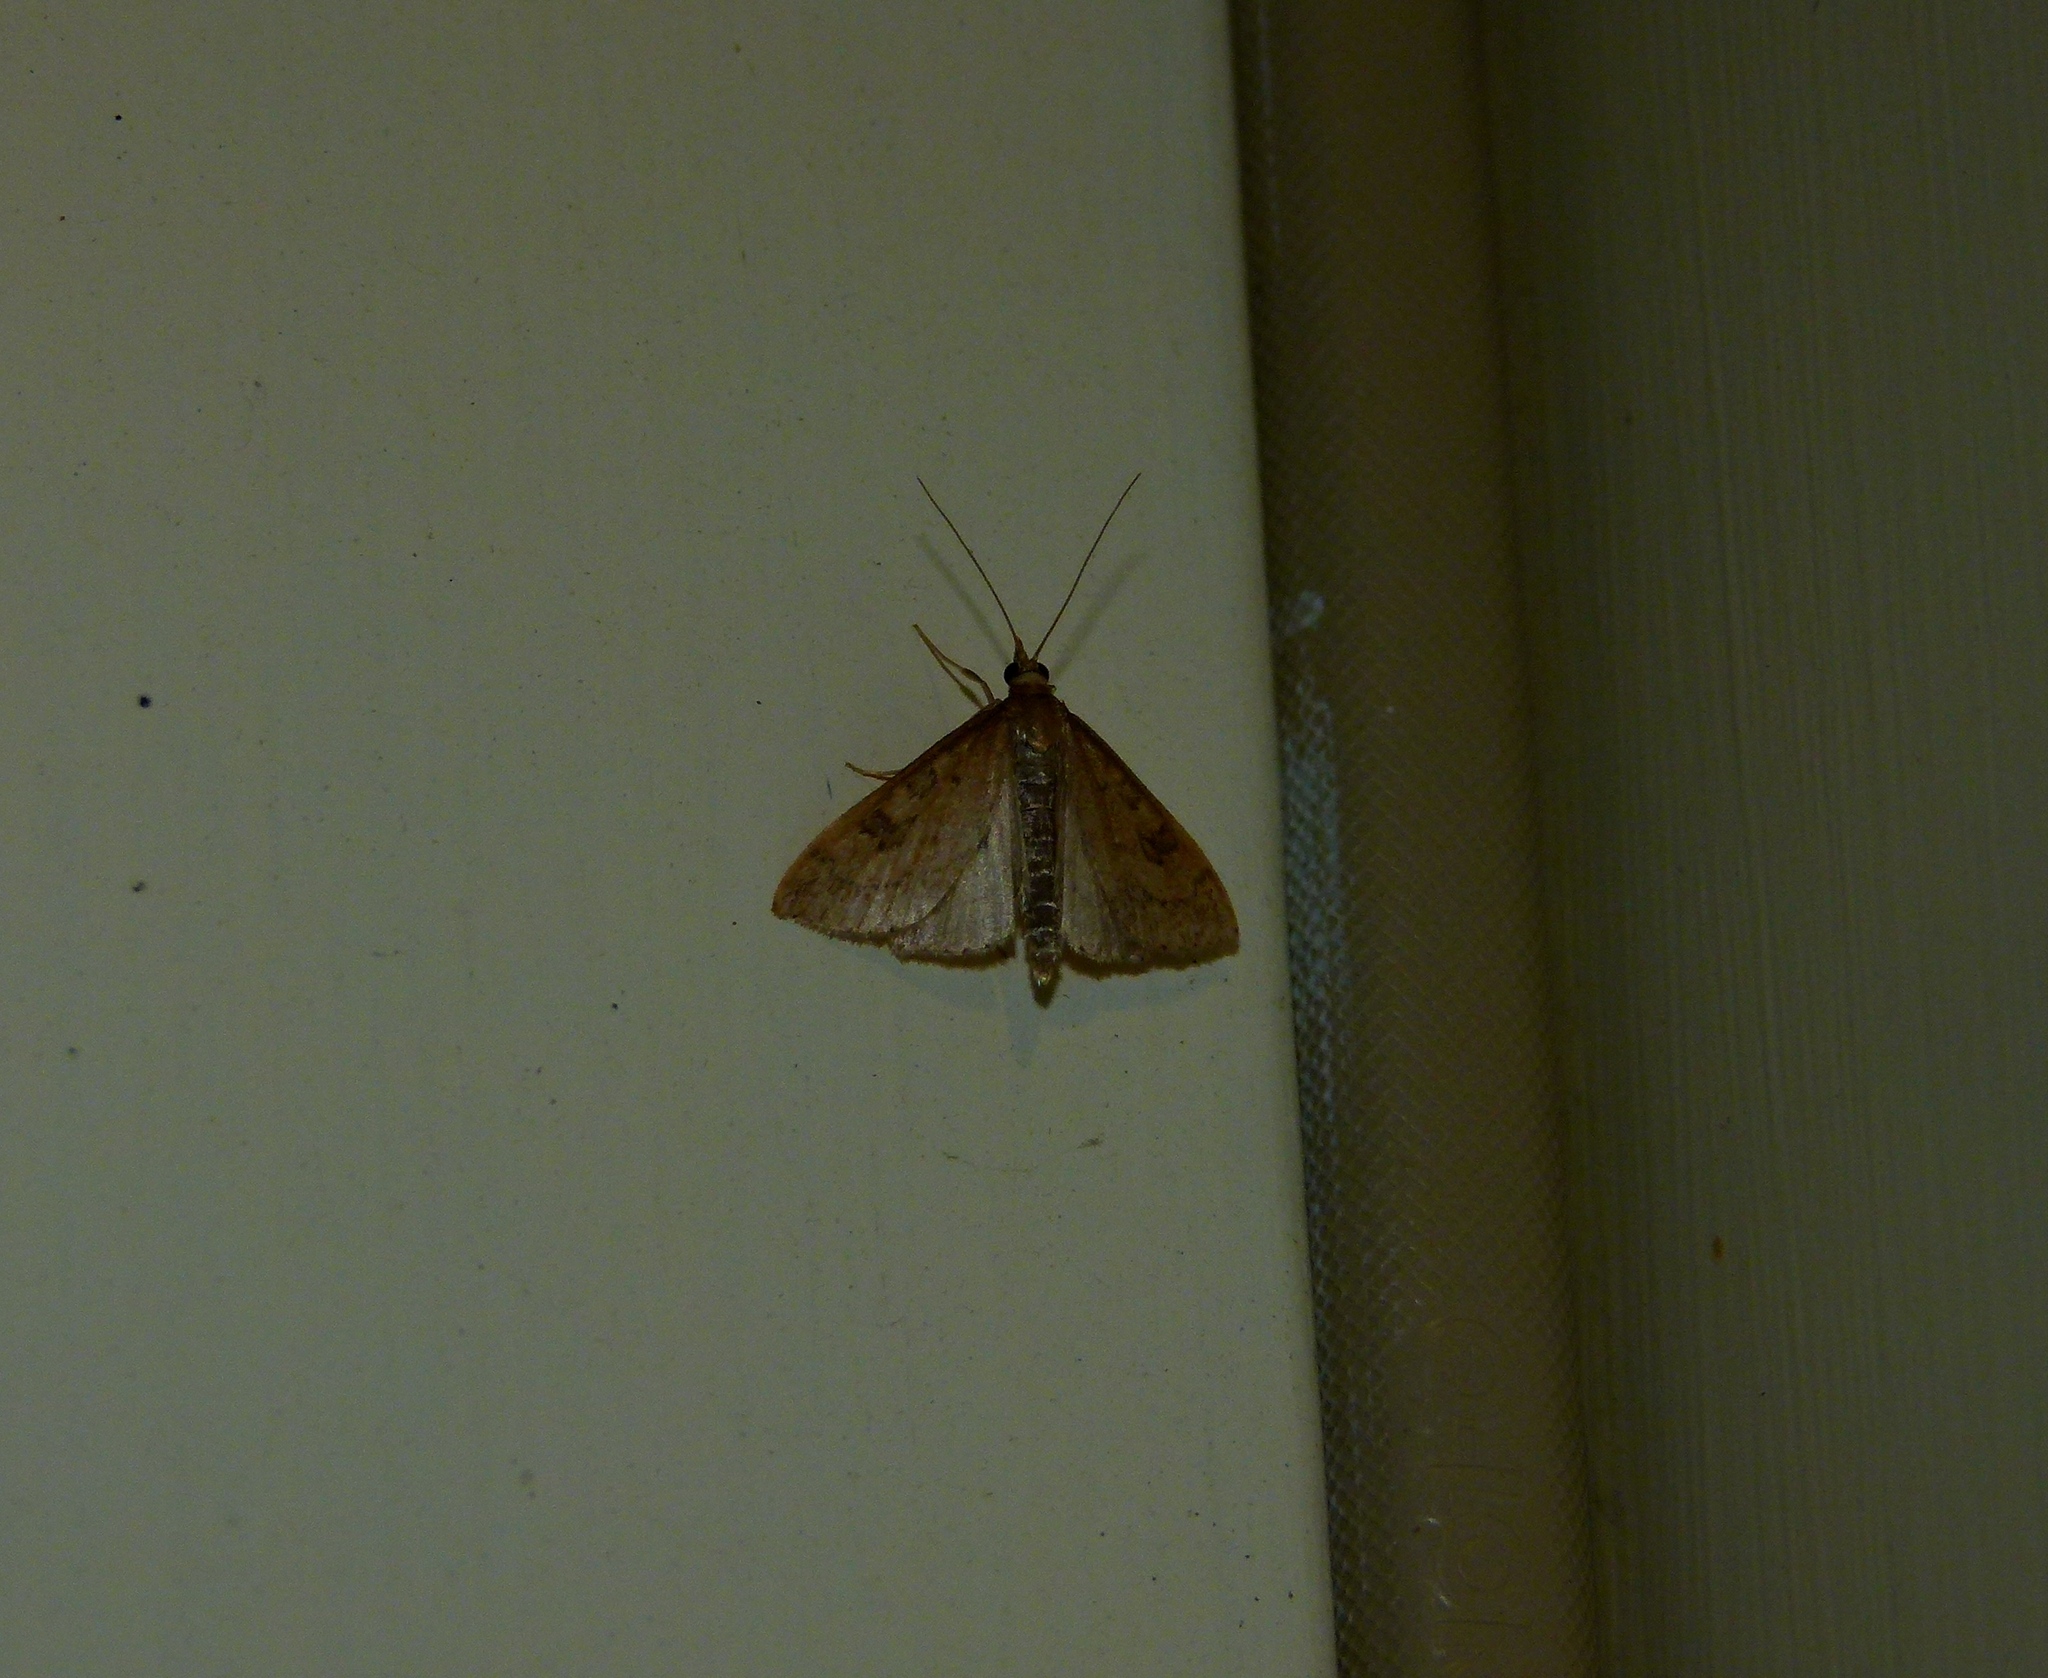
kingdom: Animalia
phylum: Arthropoda
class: Insecta
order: Lepidoptera
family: Crambidae
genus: Udea
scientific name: Udea rubigalis
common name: Celery leaftier moth
